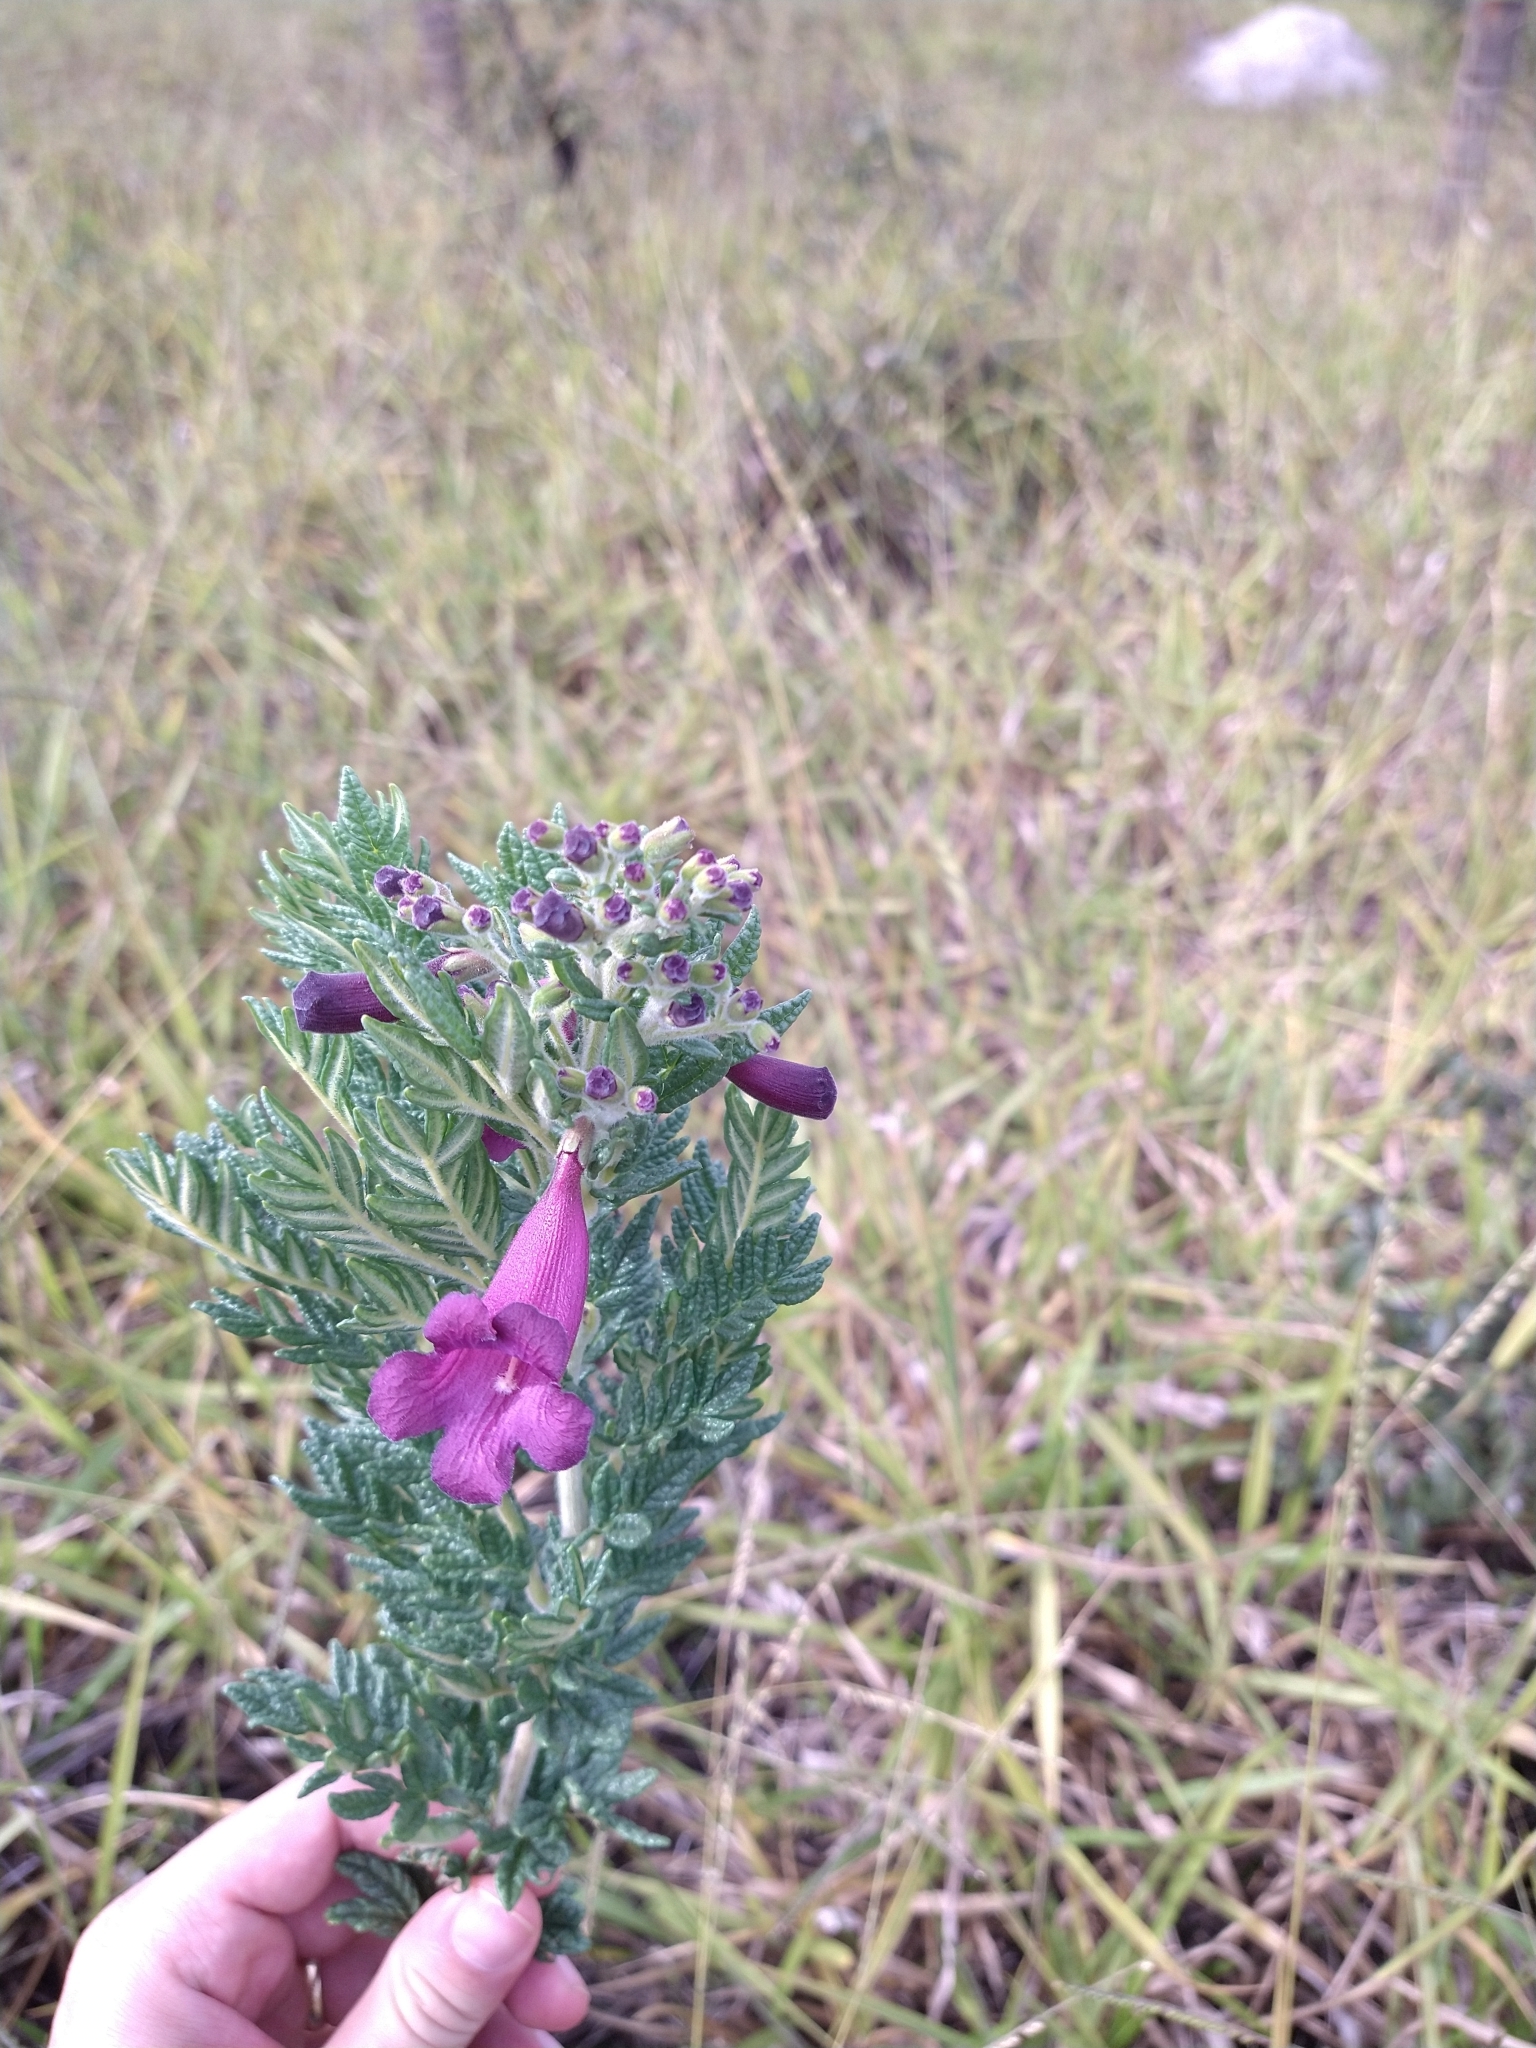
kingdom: Plantae
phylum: Tracheophyta
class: Magnoliopsida
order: Lamiales
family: Bignoniaceae
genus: Jacaranda
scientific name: Jacaranda ulei
